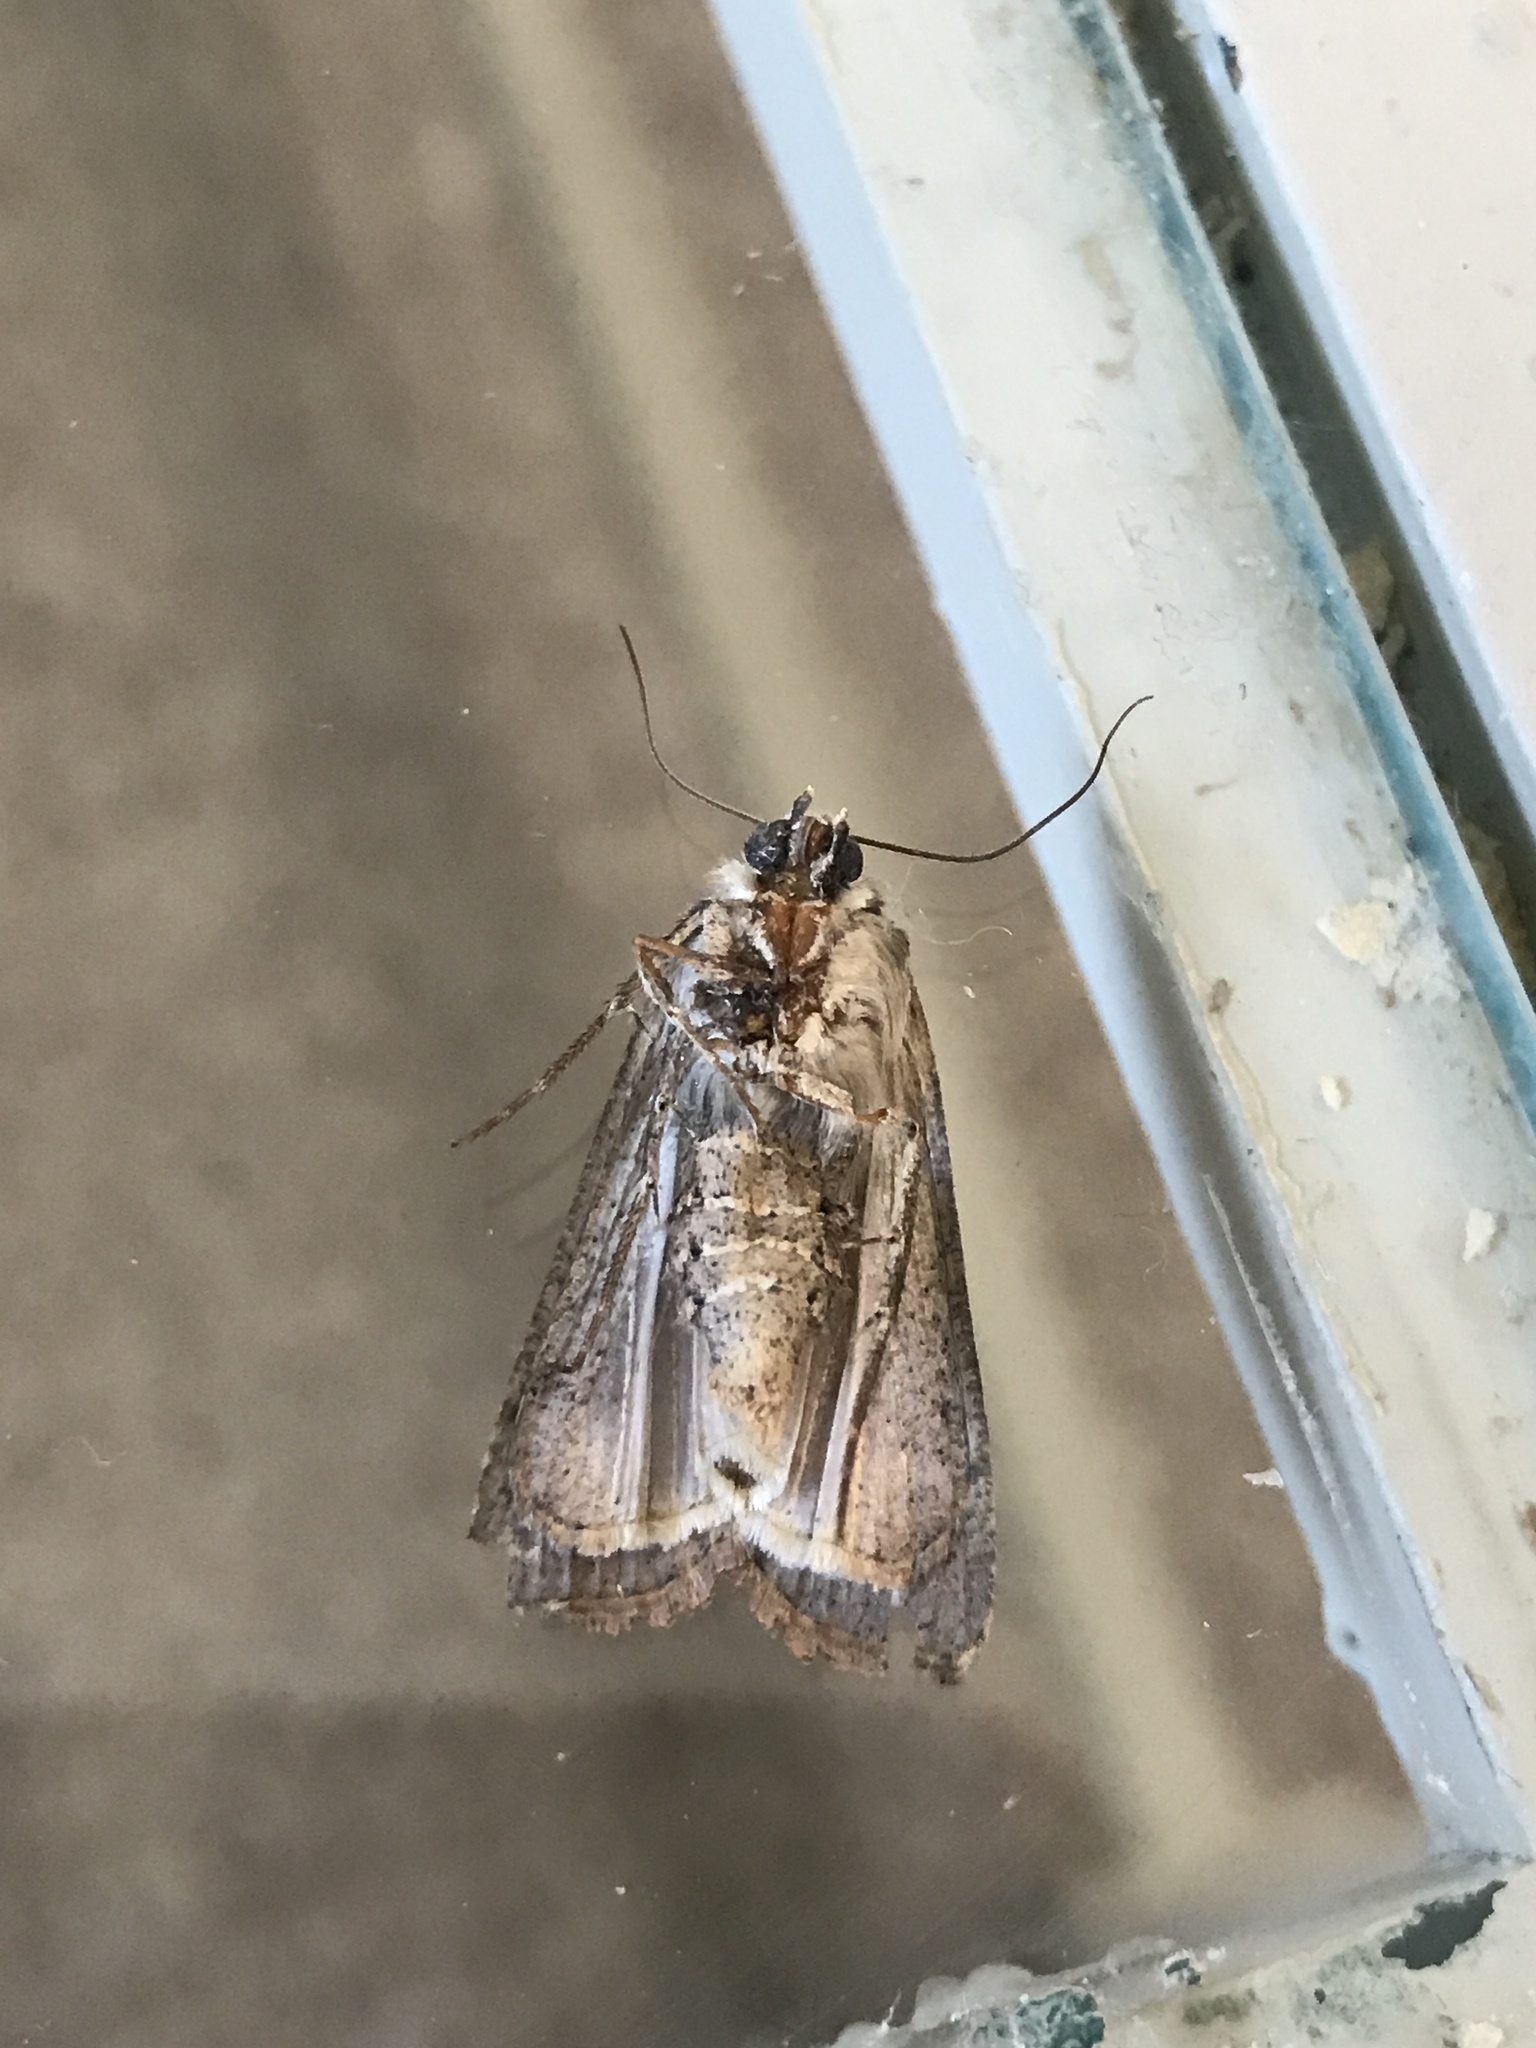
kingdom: Animalia
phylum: Arthropoda
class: Insecta
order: Lepidoptera
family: Noctuidae
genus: Anicla
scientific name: Anicla infecta
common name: Green cutworm
